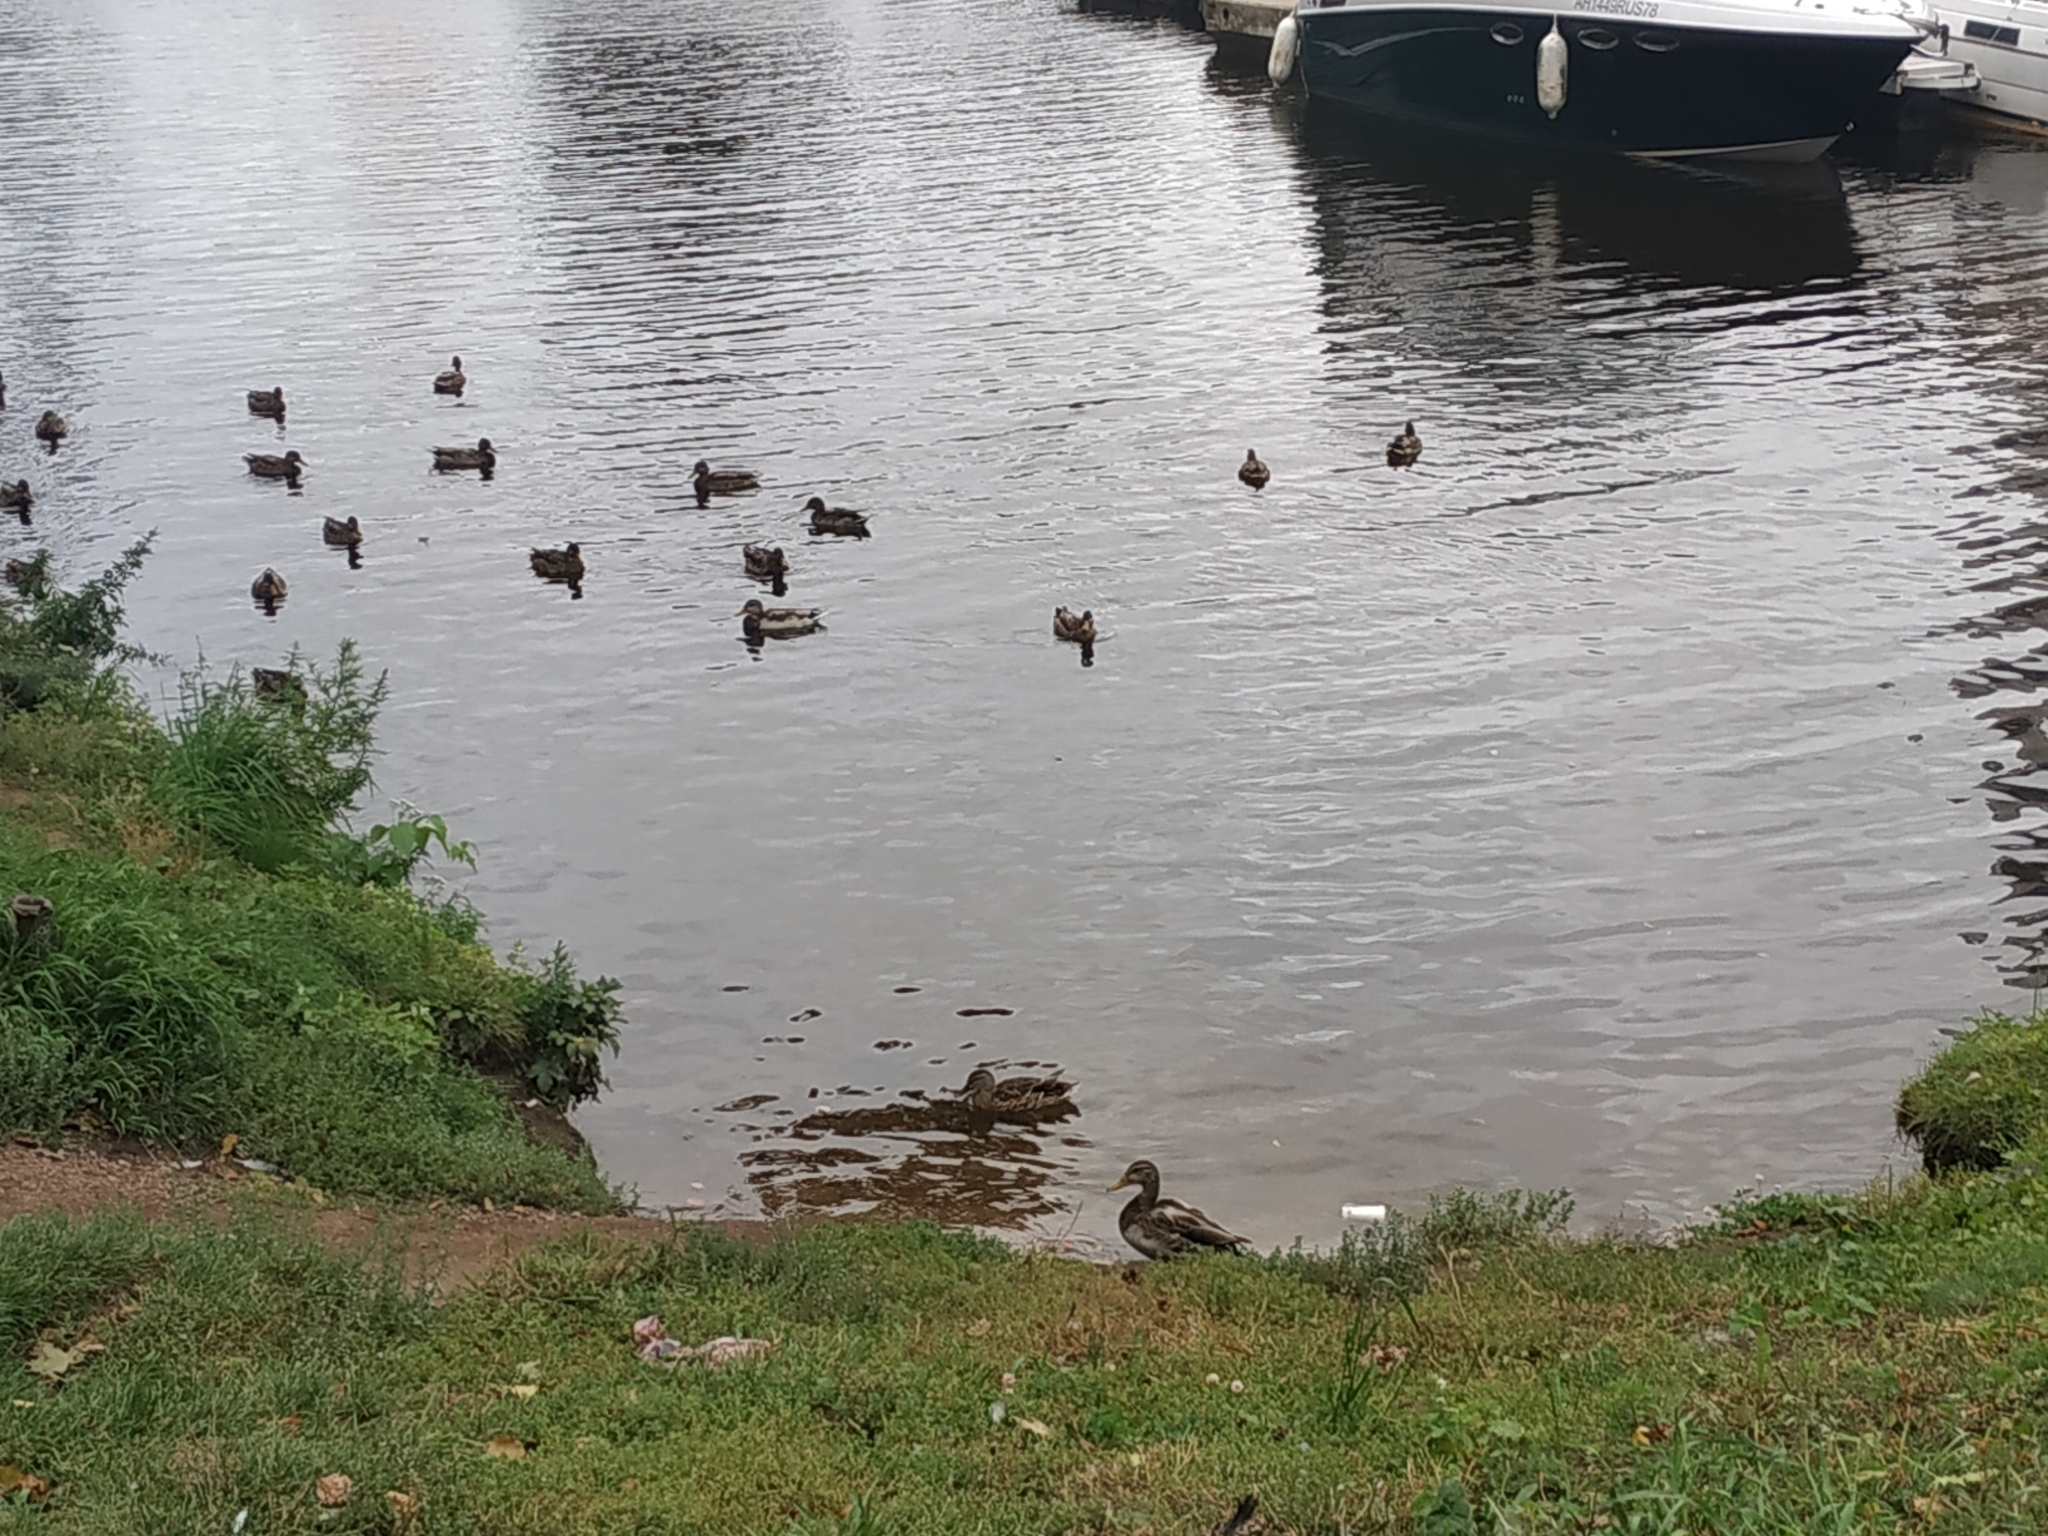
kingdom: Animalia
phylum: Chordata
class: Aves
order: Anseriformes
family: Anatidae
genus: Anas
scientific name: Anas platyrhynchos
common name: Mallard
